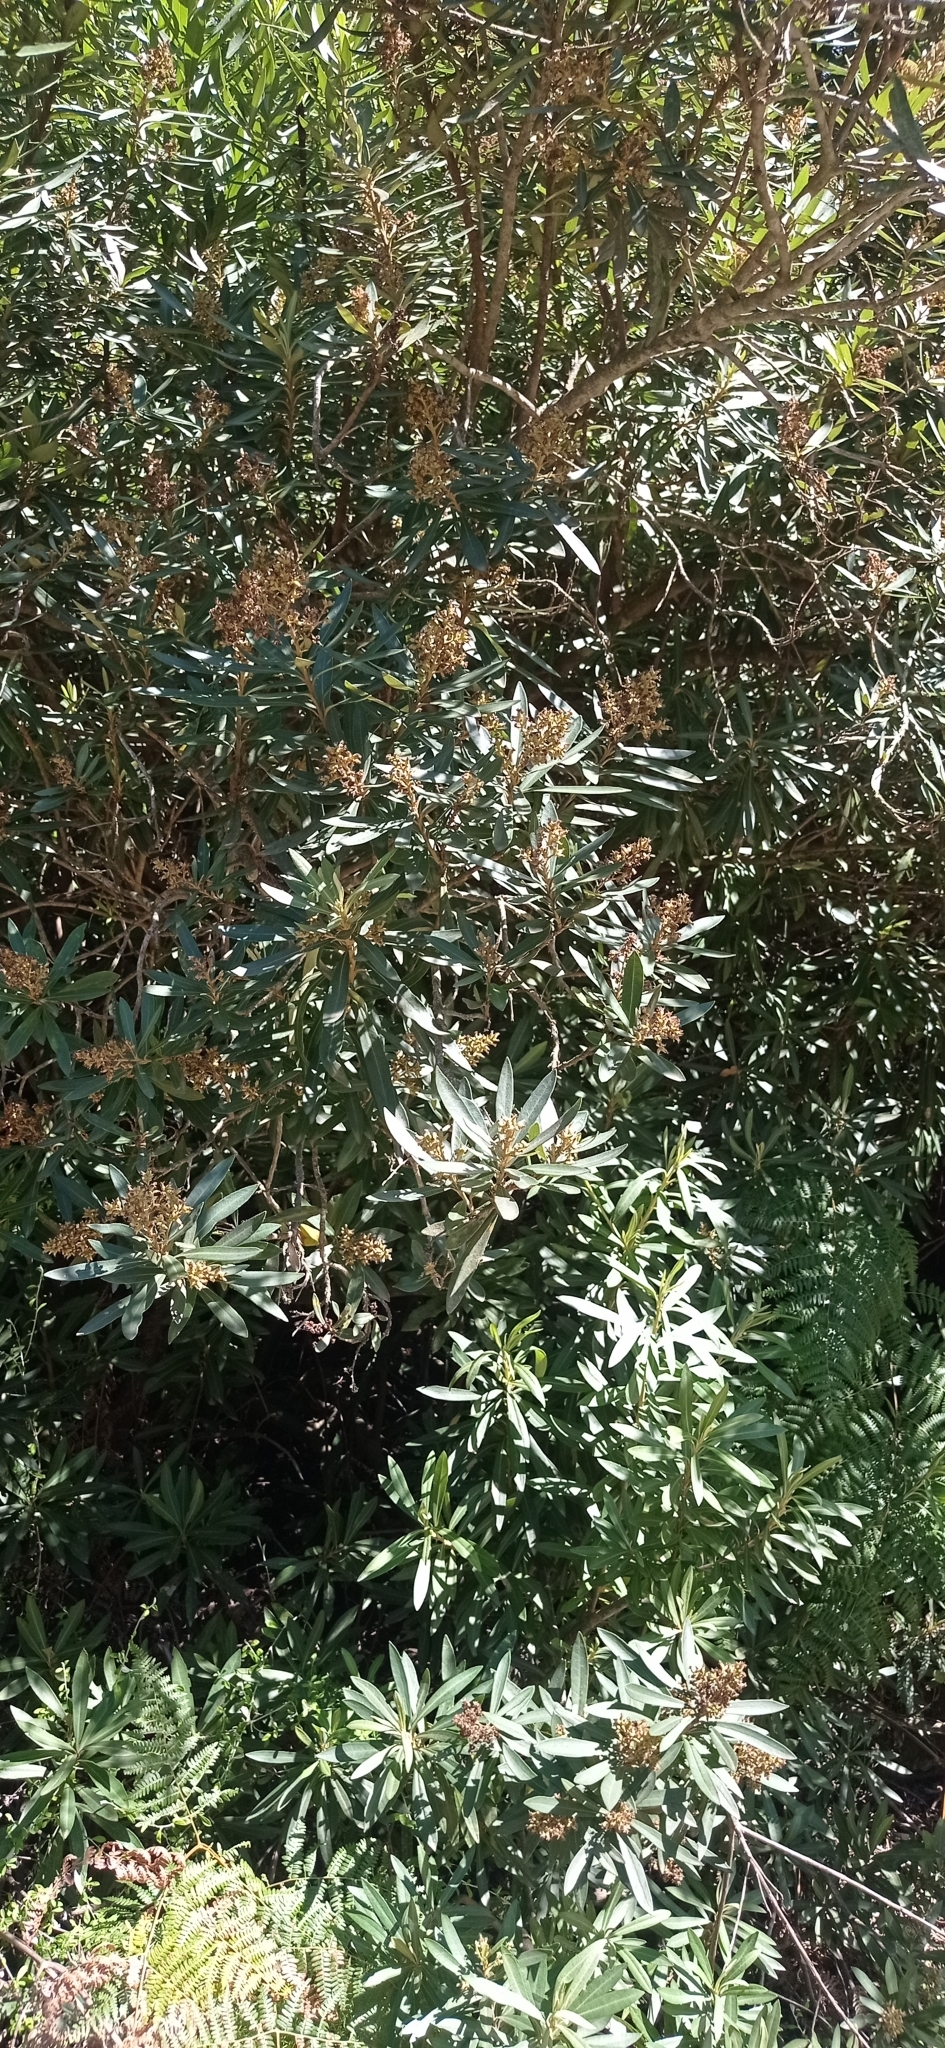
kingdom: Plantae
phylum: Tracheophyta
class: Magnoliopsida
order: Asterales
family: Asteraceae
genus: Brachylaena
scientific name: Brachylaena neriifolia
